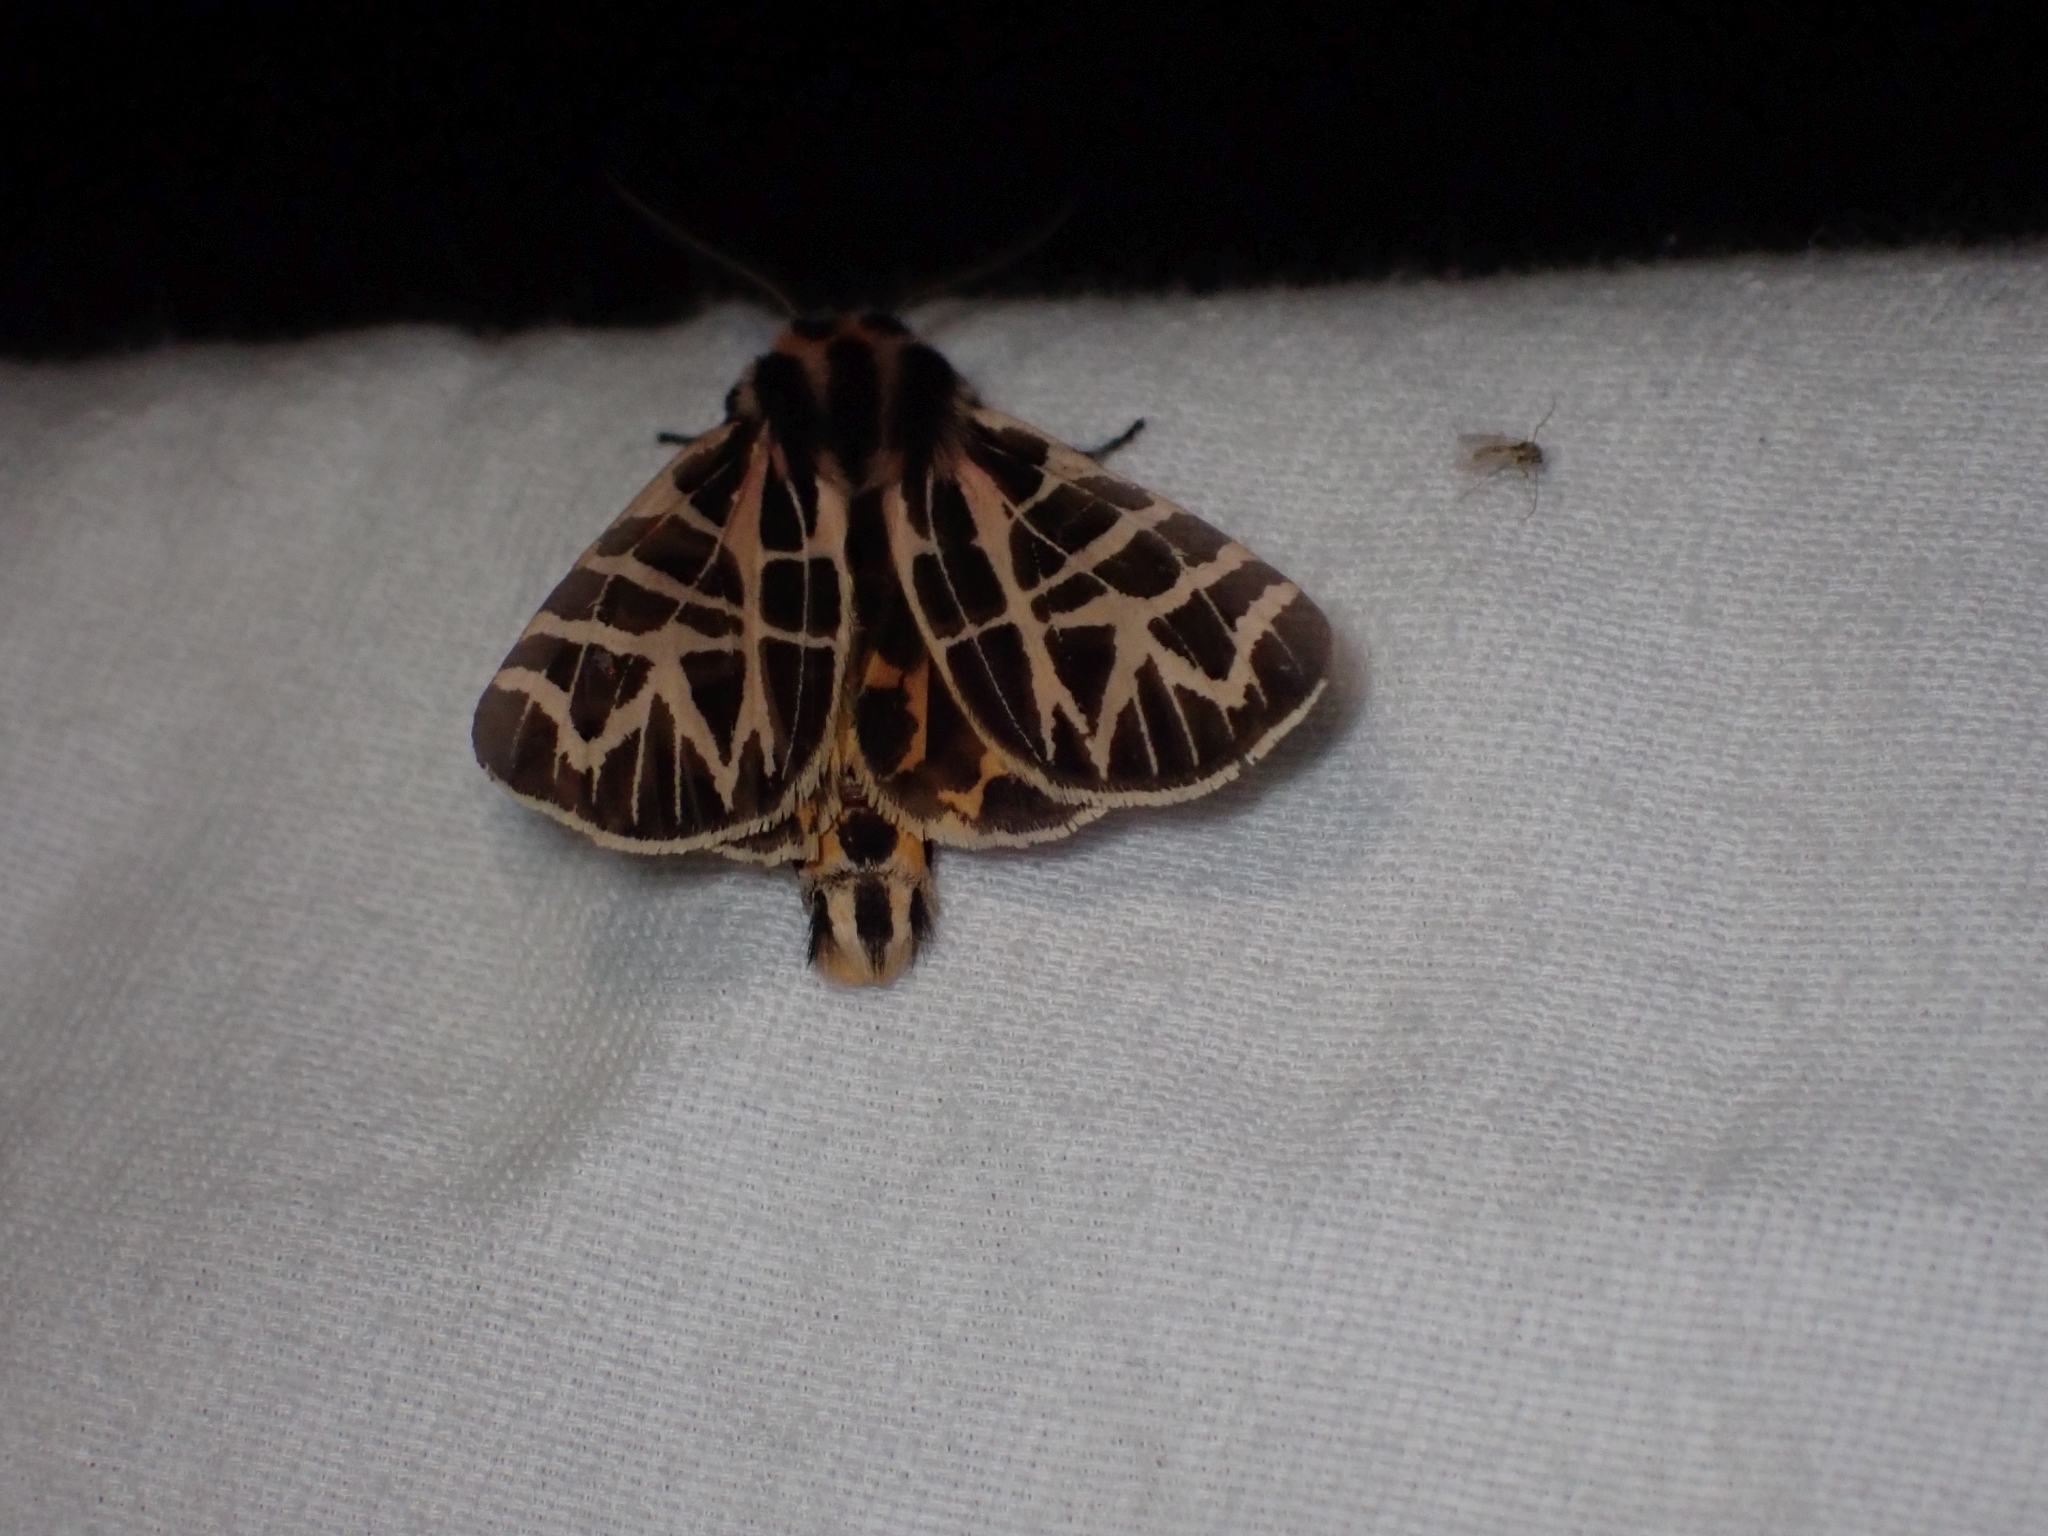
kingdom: Animalia
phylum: Arthropoda
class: Insecta
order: Lepidoptera
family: Erebidae
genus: Apantesis
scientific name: Apantesis
